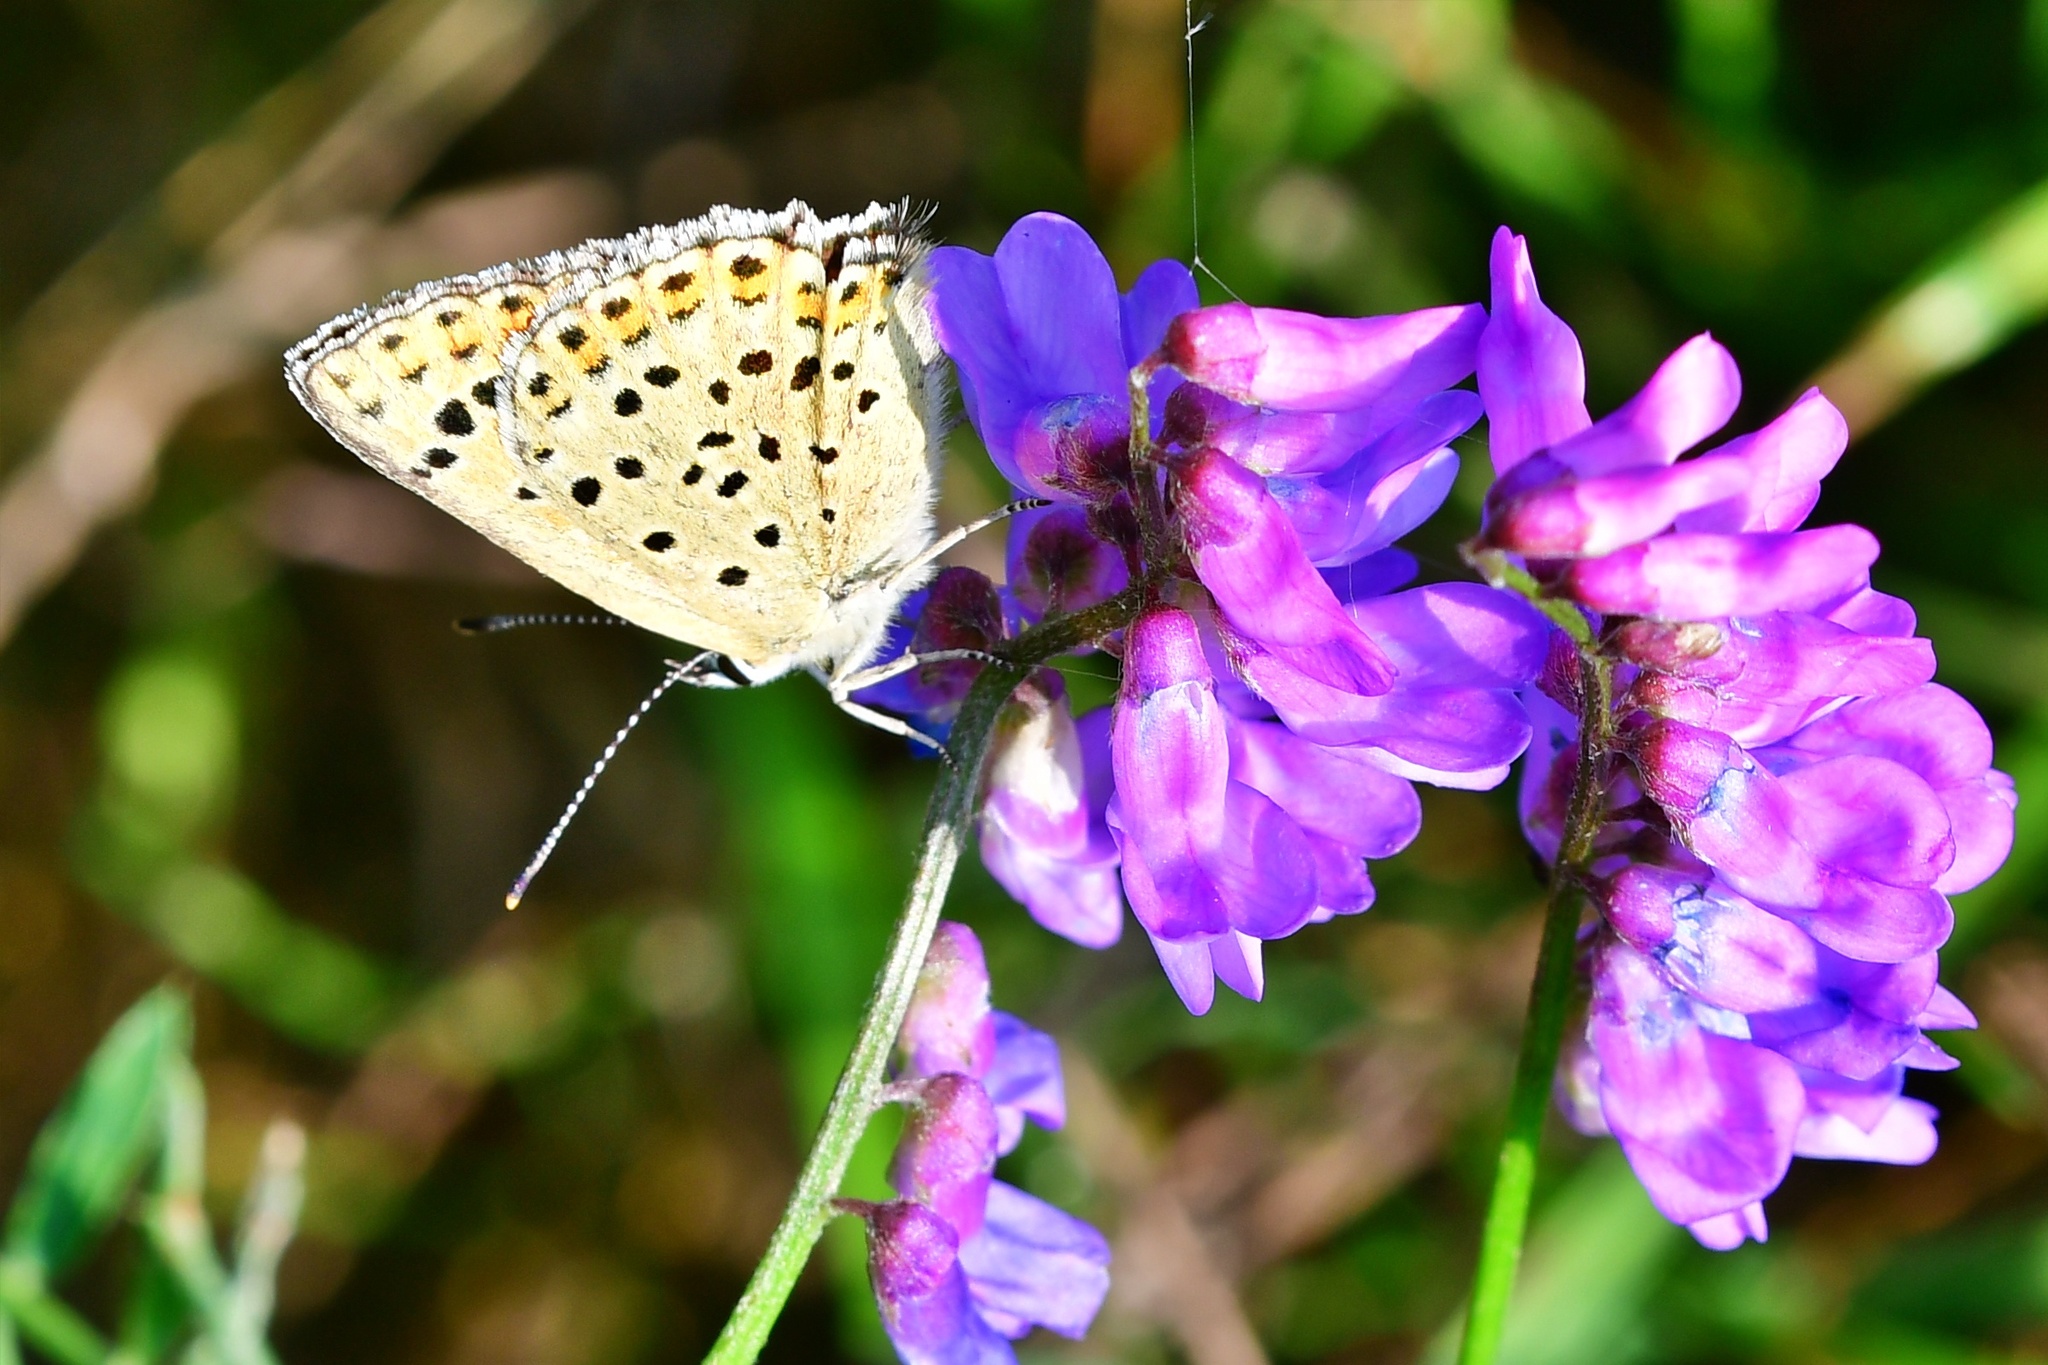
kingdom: Animalia
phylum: Arthropoda
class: Insecta
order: Lepidoptera
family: Lycaenidae
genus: Loweia
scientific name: Loweia tityrus
